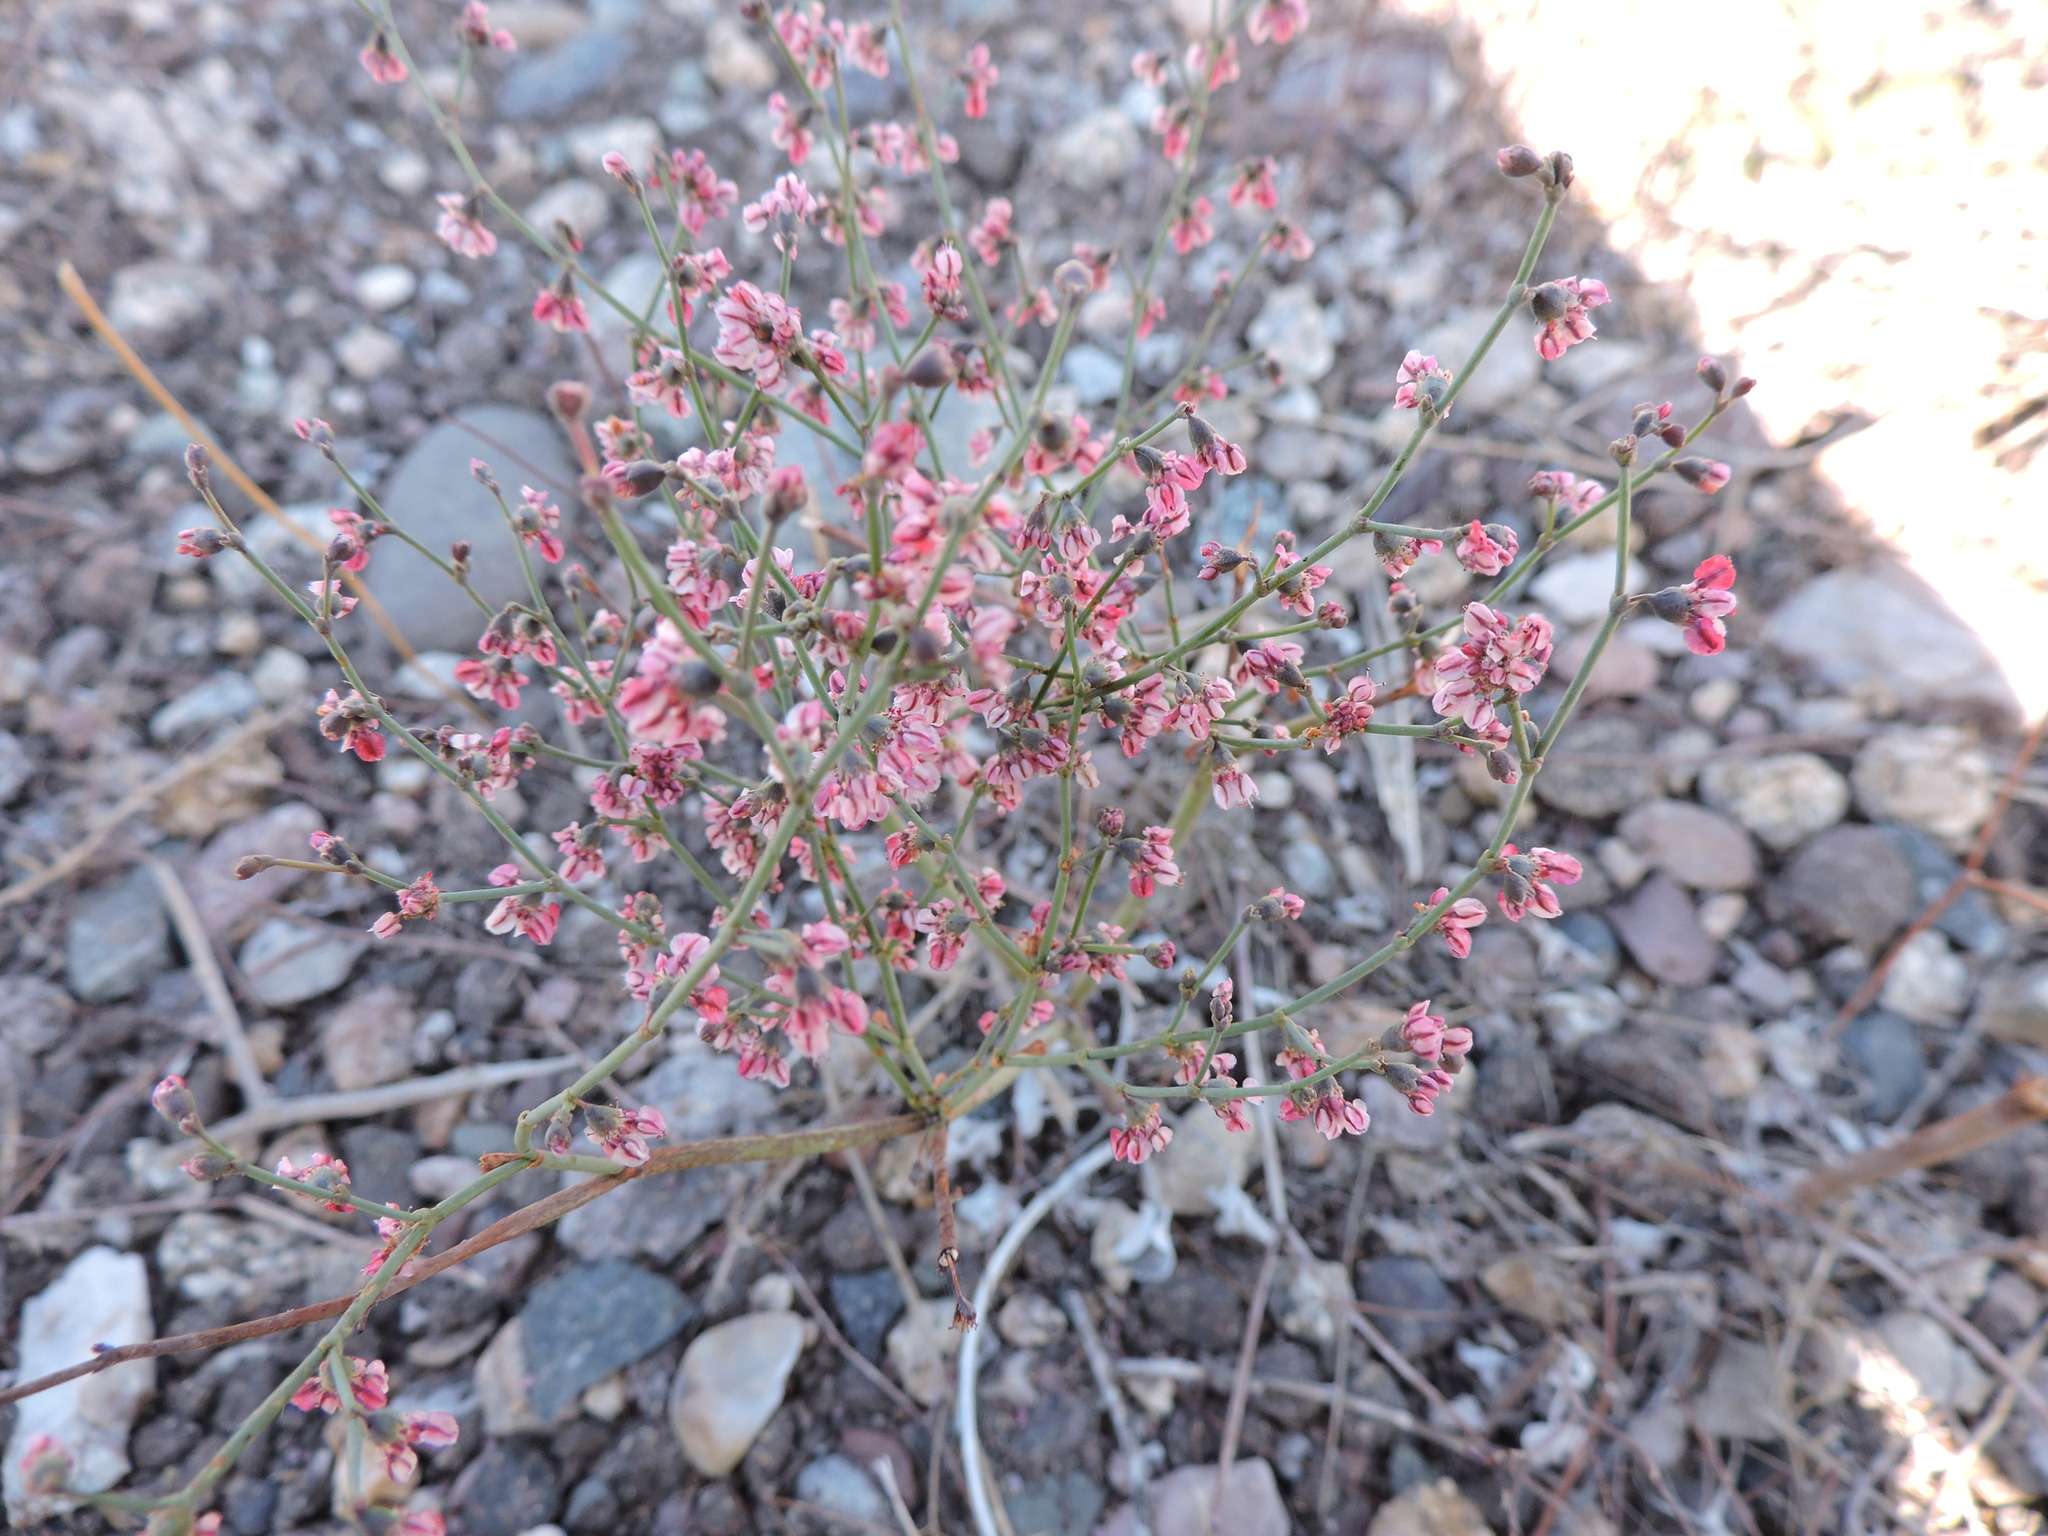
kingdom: Plantae
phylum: Tracheophyta
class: Magnoliopsida
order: Caryophyllales
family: Polygonaceae
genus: Eriogonum
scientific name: Eriogonum deflexum
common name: Skeleton-weed
